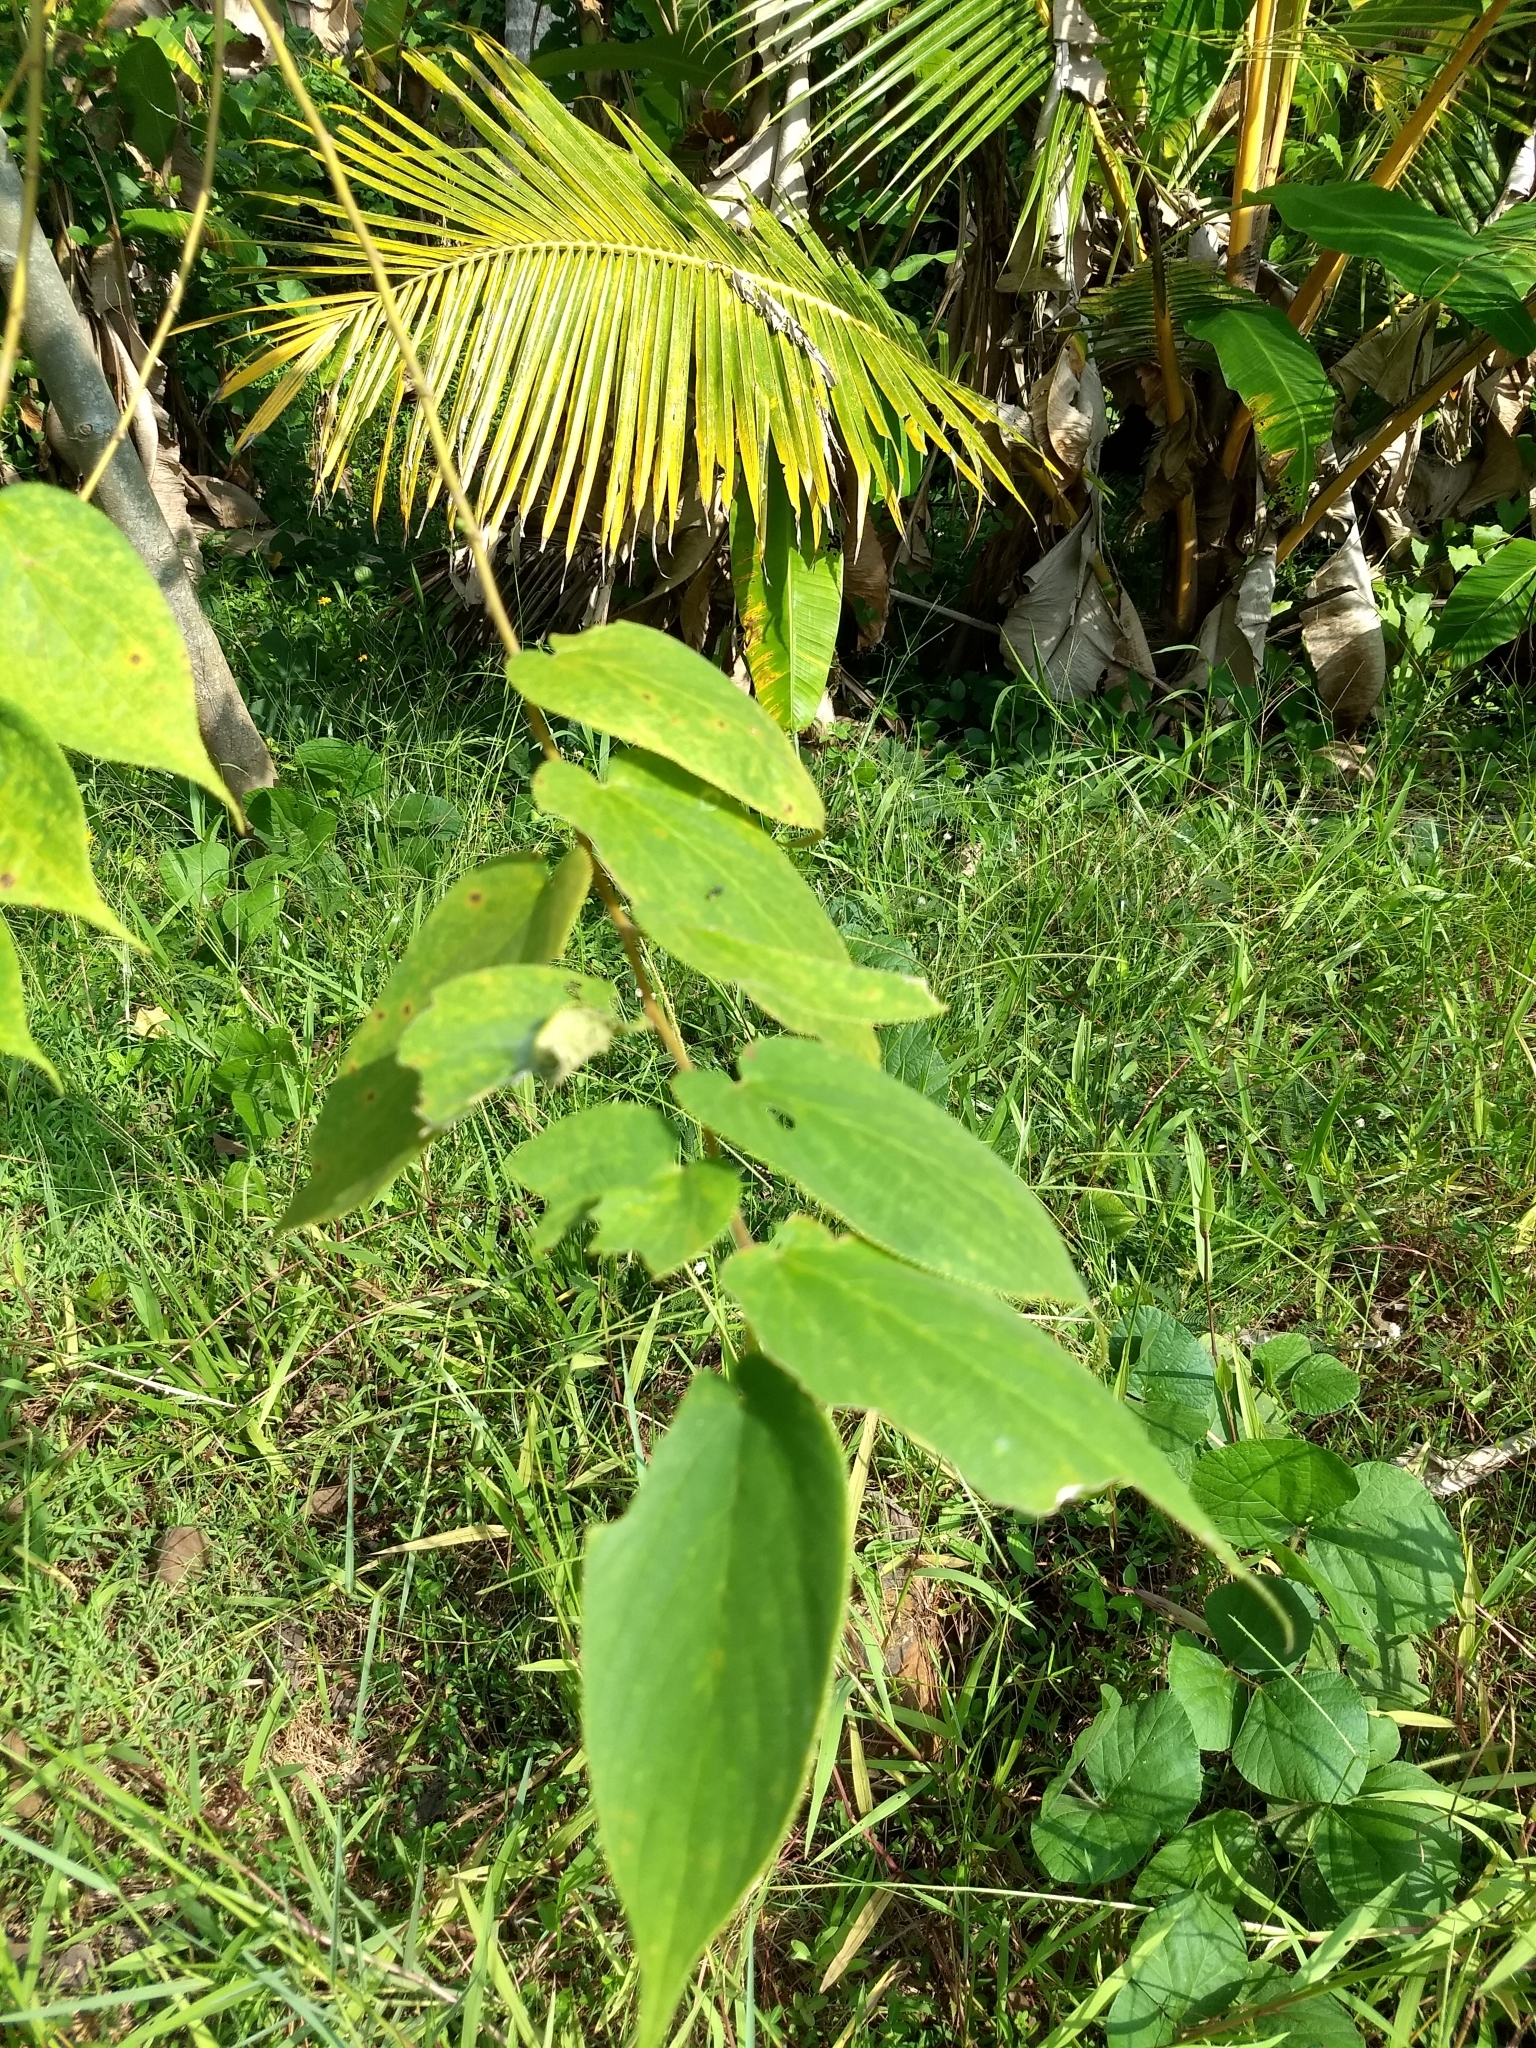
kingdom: Plantae
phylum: Tracheophyta
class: Magnoliopsida
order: Rosales
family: Cannabaceae
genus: Trema
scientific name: Trema orientale
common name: Indian charcoal tree
